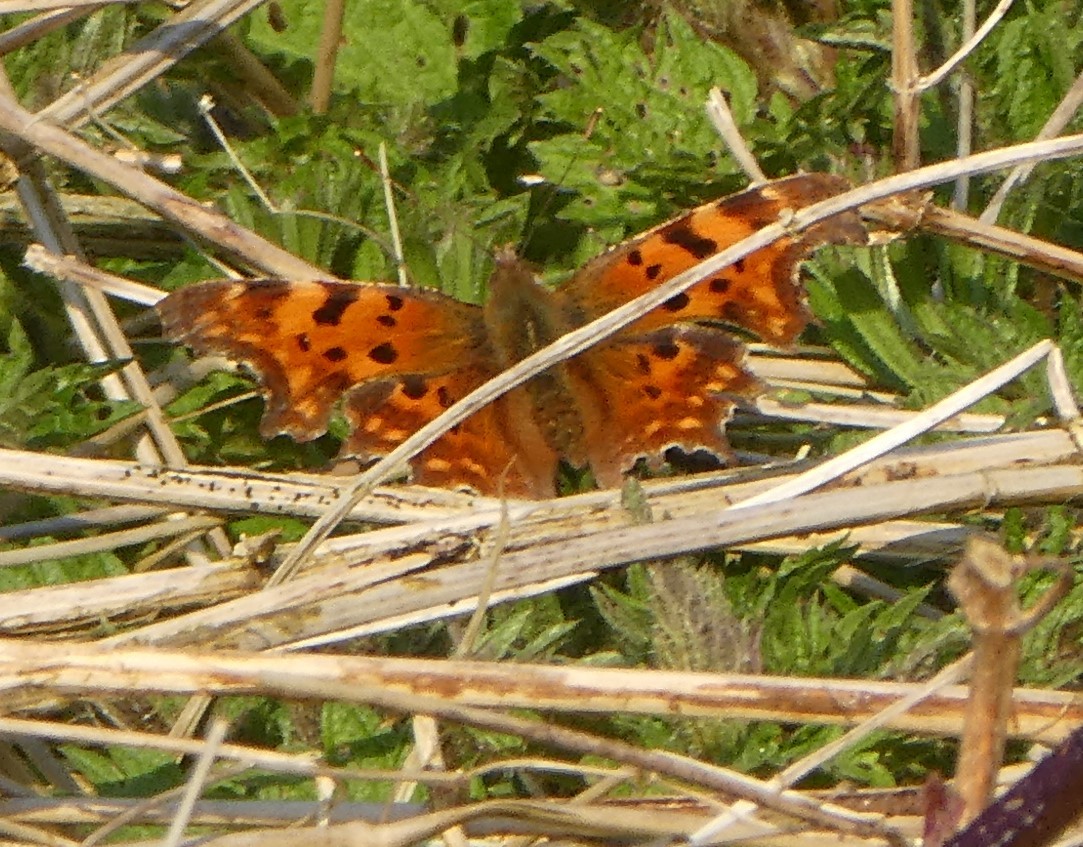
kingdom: Animalia
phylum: Arthropoda
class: Insecta
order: Lepidoptera
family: Nymphalidae
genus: Polygonia
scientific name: Polygonia c-album
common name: Comma
